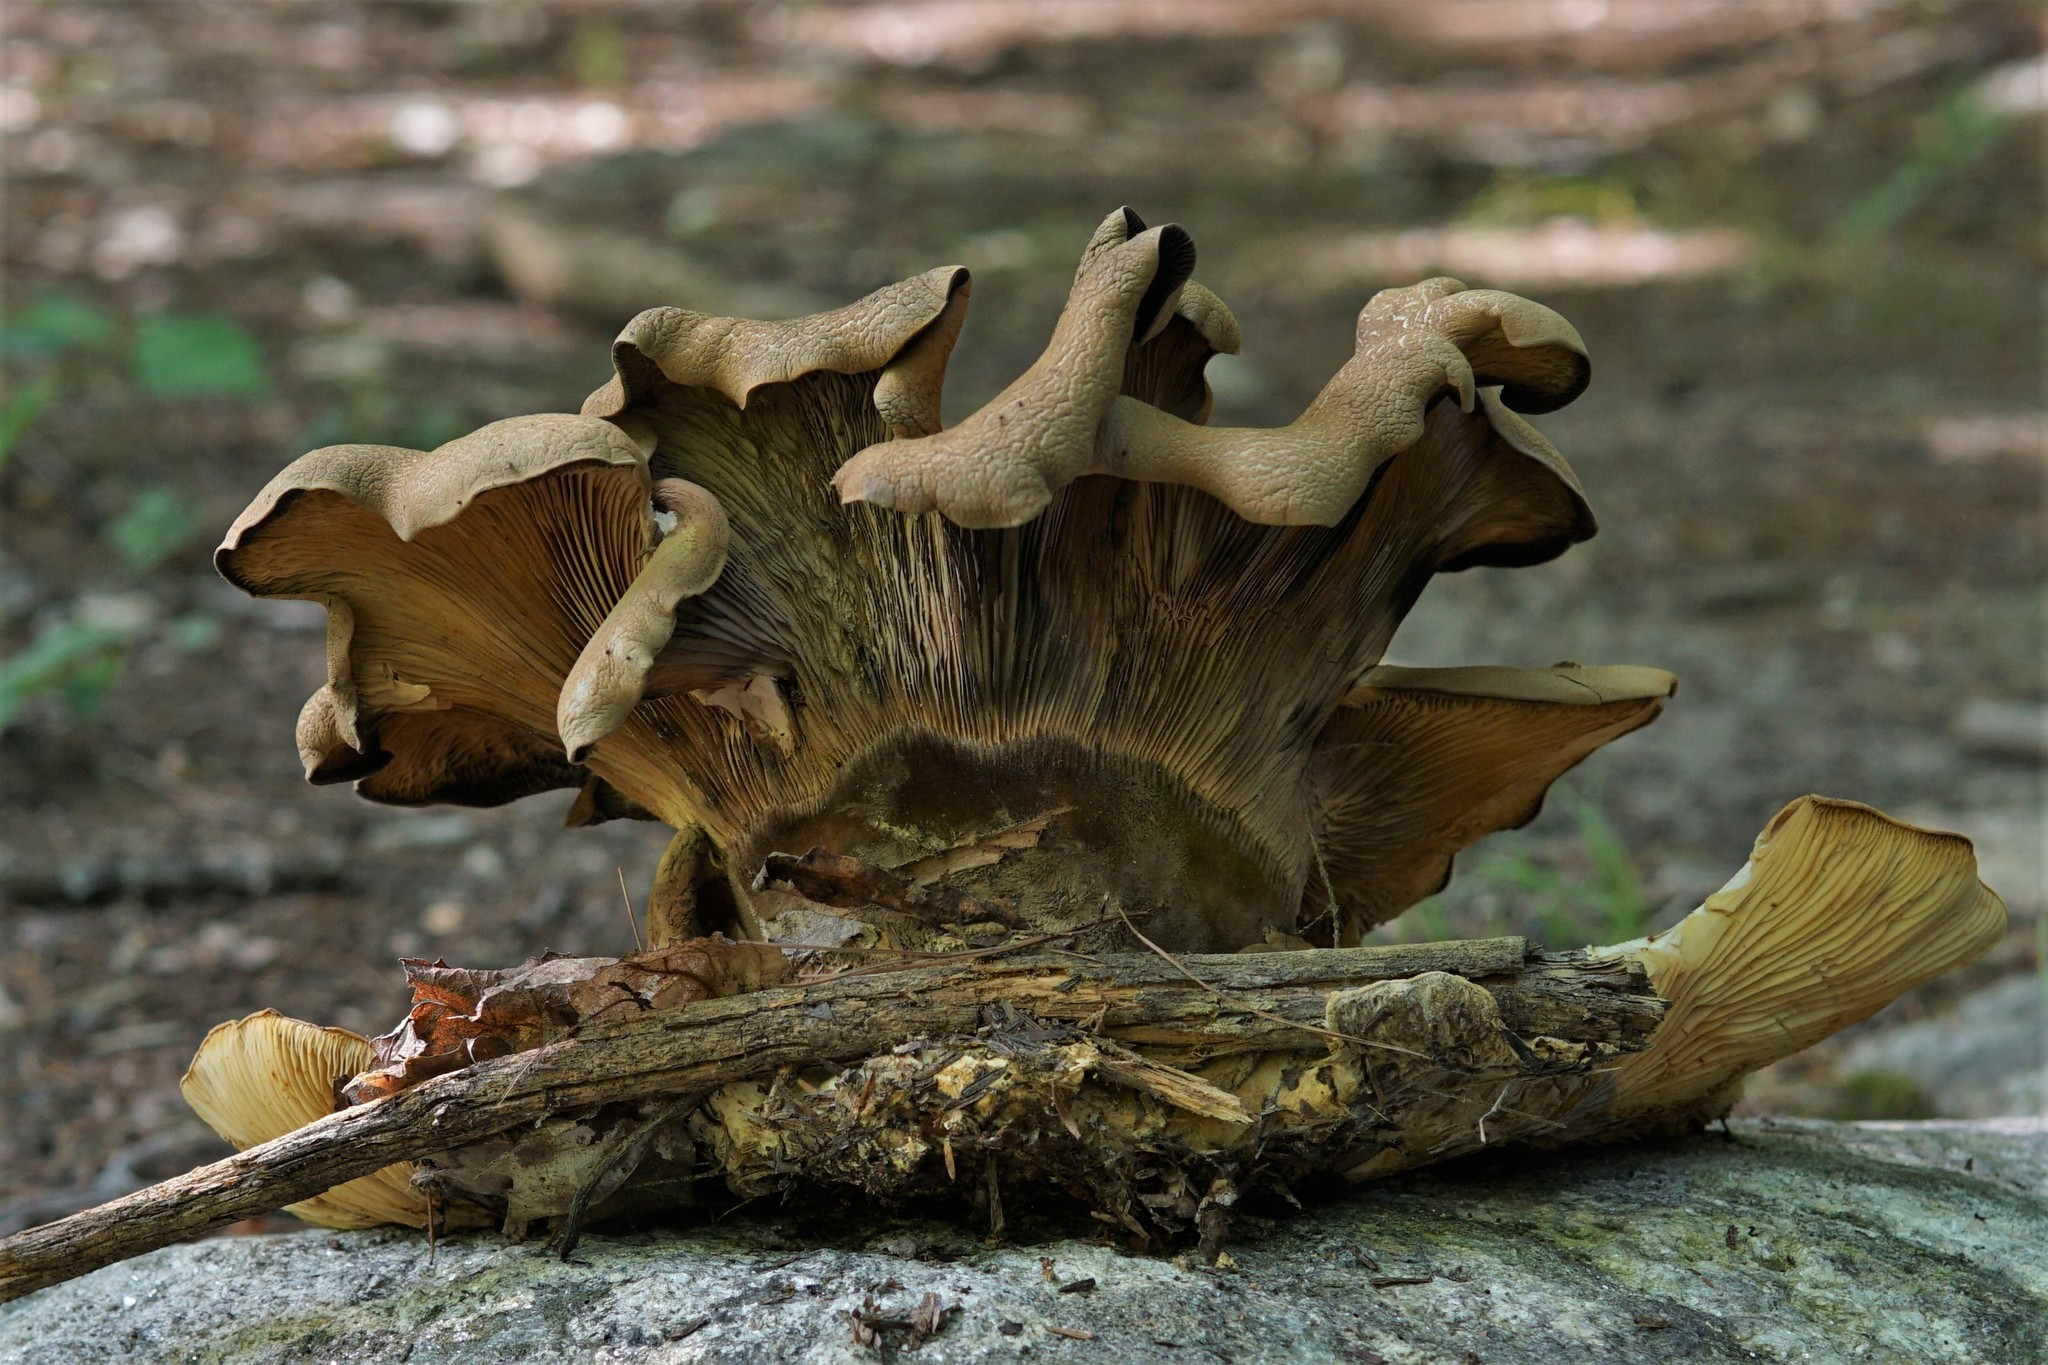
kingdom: Fungi
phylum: Basidiomycota
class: Agaricomycetes
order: Boletales
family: Tapinellaceae
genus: Tapinella
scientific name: Tapinella atrotomentosa
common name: Velvet rollrim
